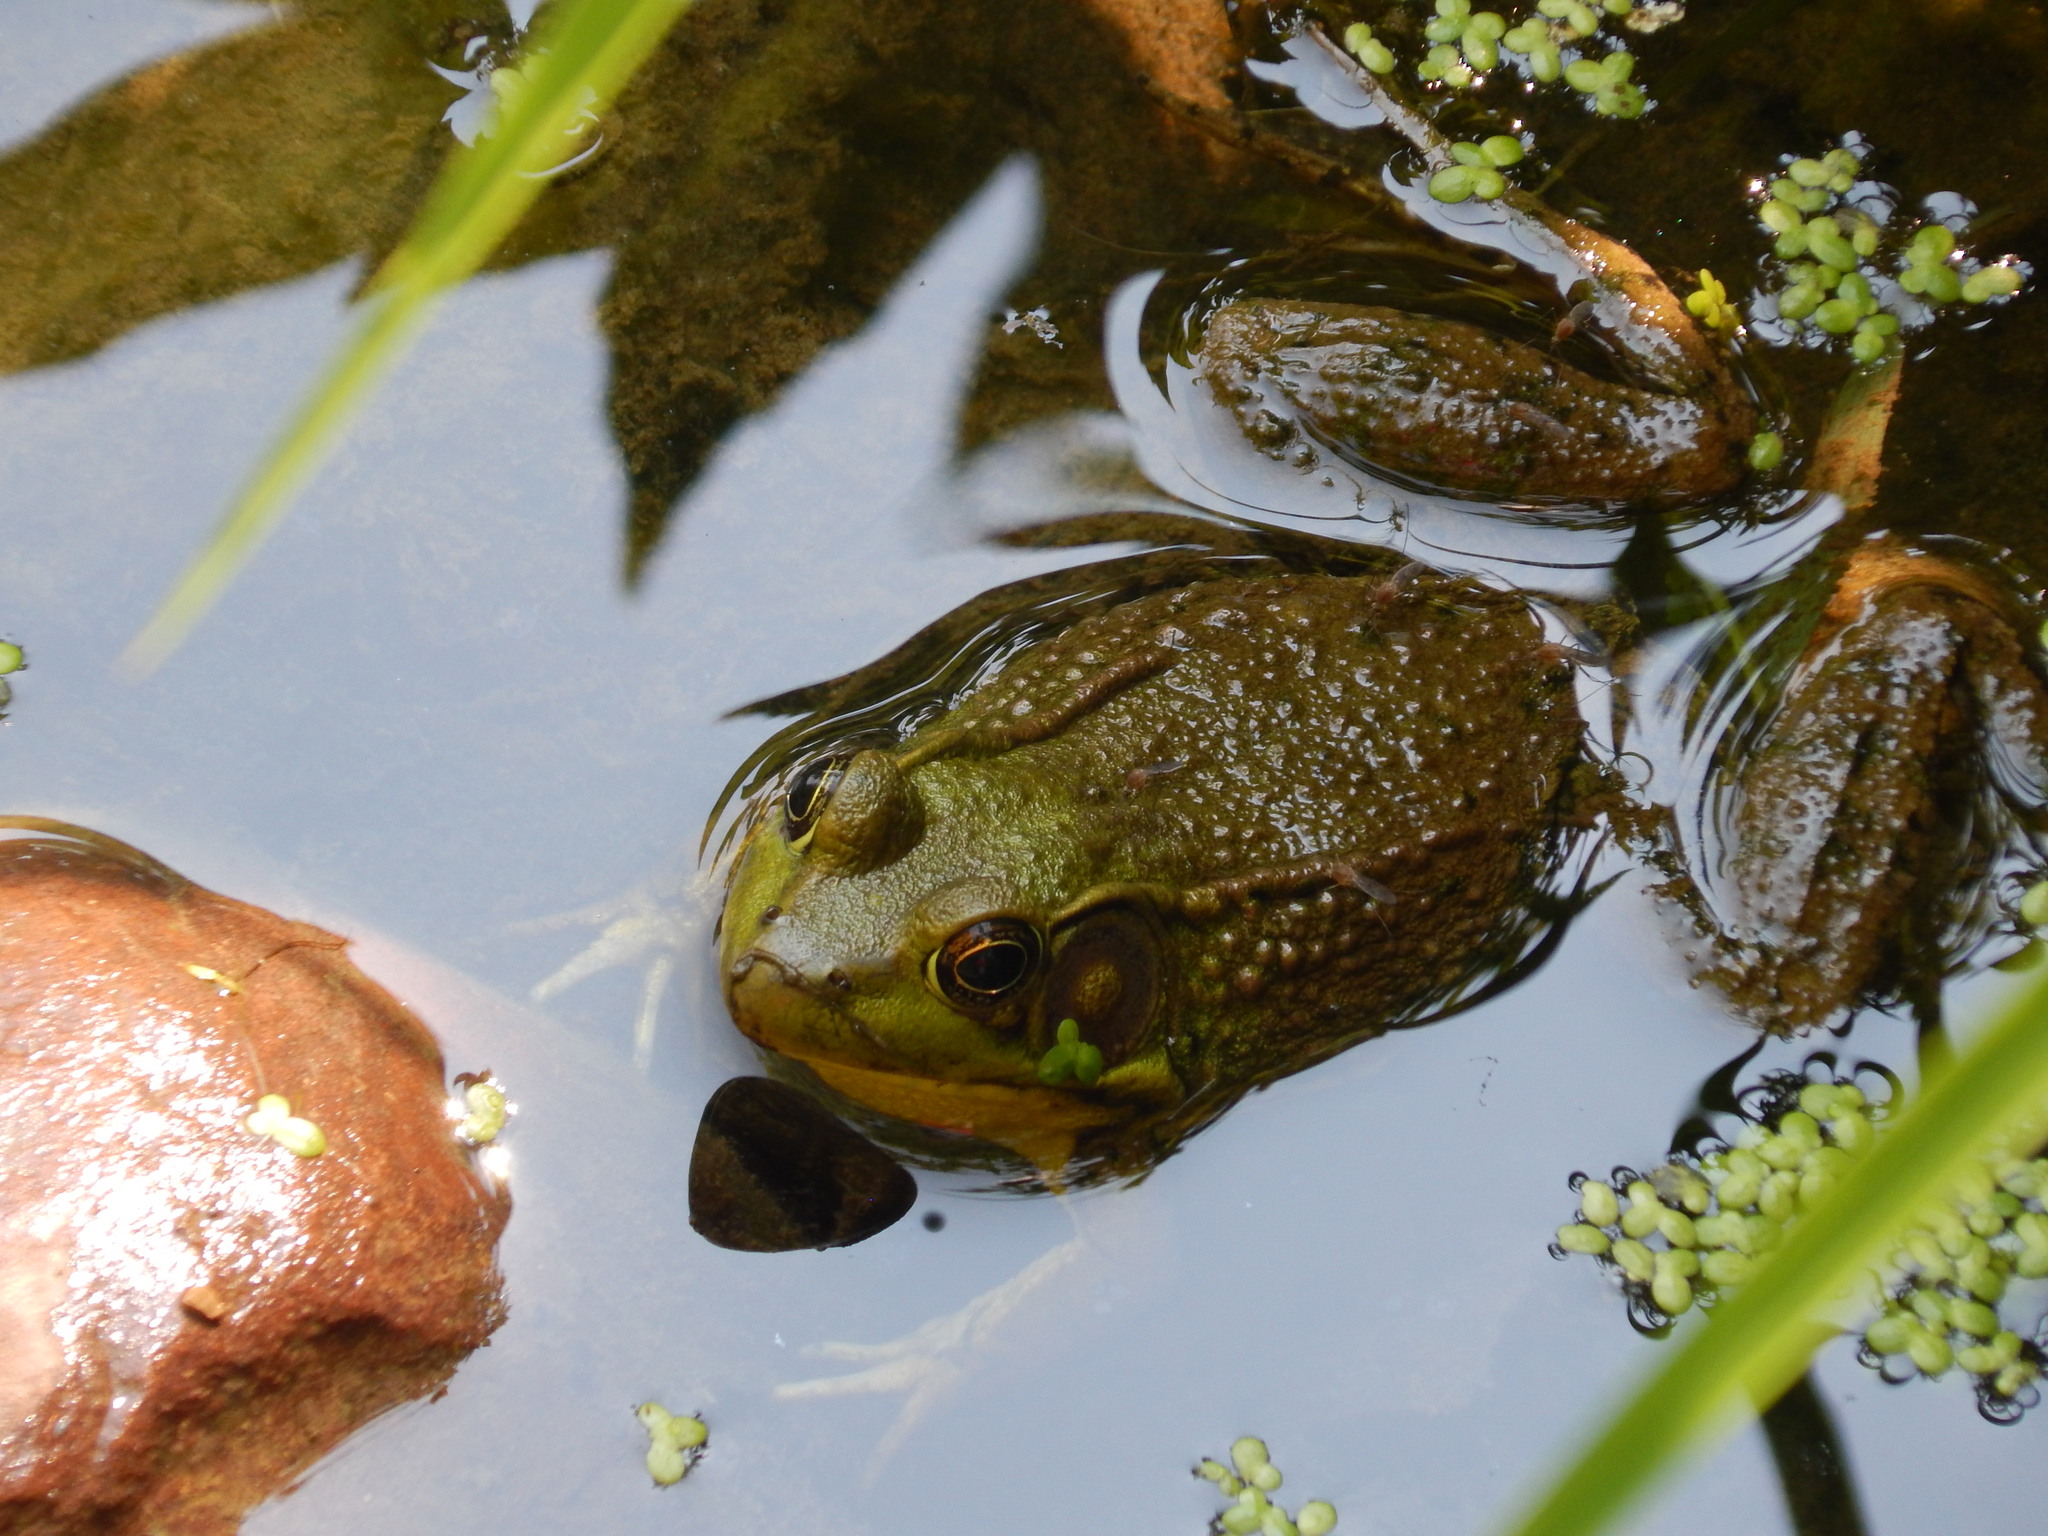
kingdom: Animalia
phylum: Chordata
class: Amphibia
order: Anura
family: Ranidae
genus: Lithobates
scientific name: Lithobates clamitans
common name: Green frog
